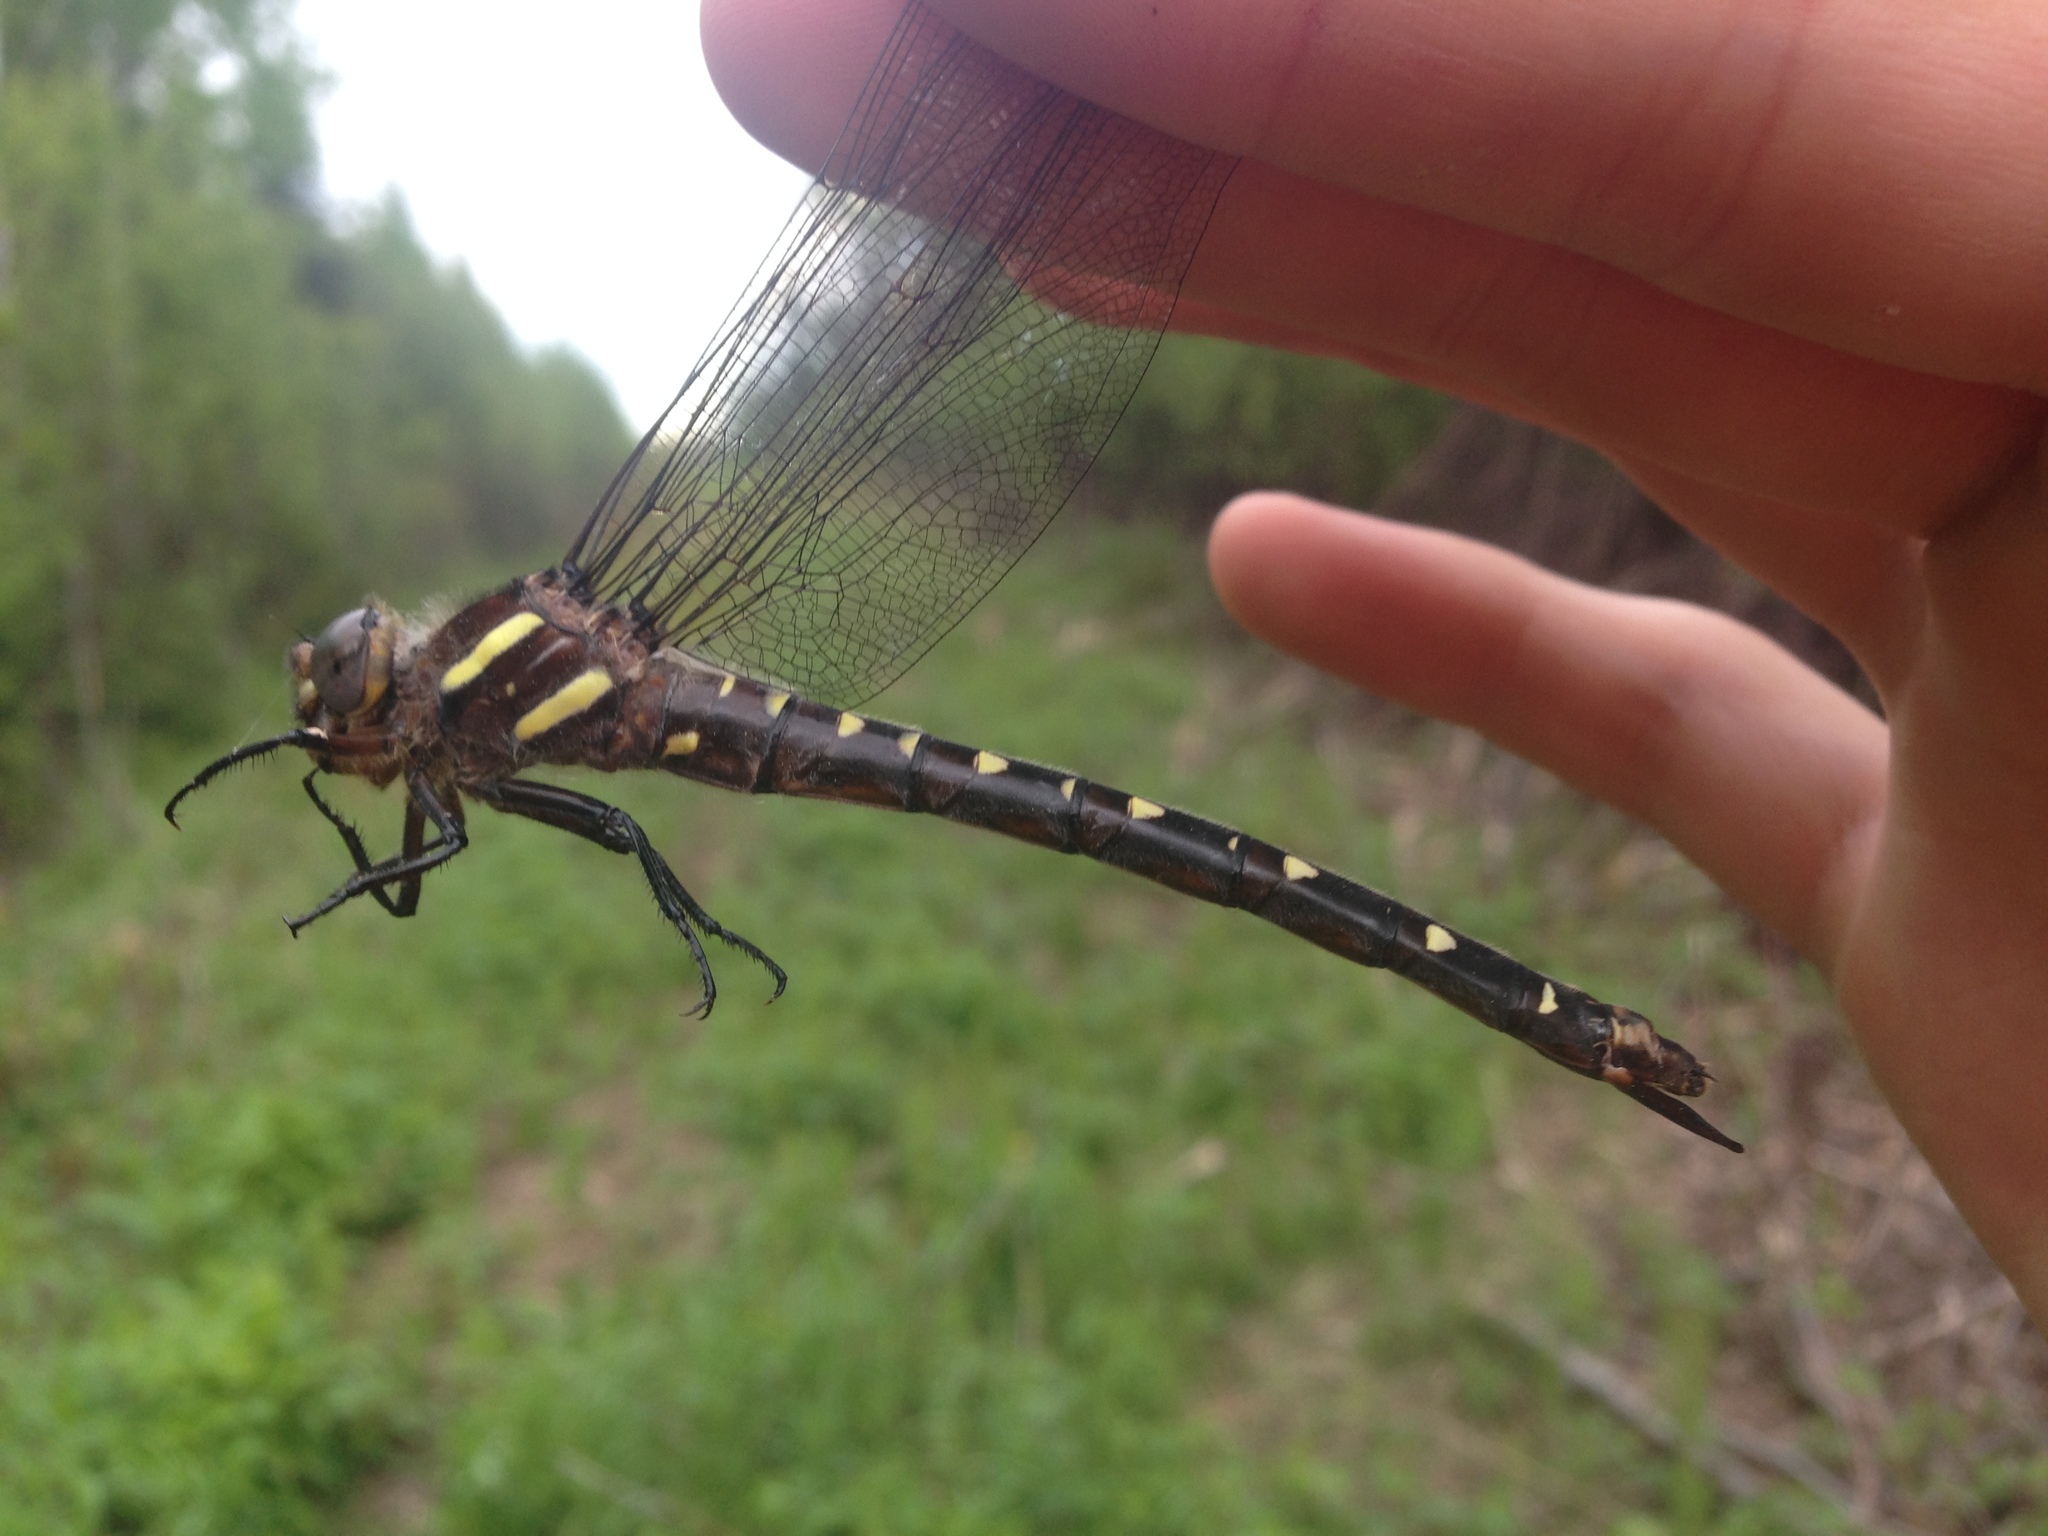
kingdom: Animalia
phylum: Arthropoda
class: Insecta
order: Odonata
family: Cordulegastridae
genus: Cordulegaster
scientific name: Cordulegaster maculata
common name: Twin-spotted spiketail
